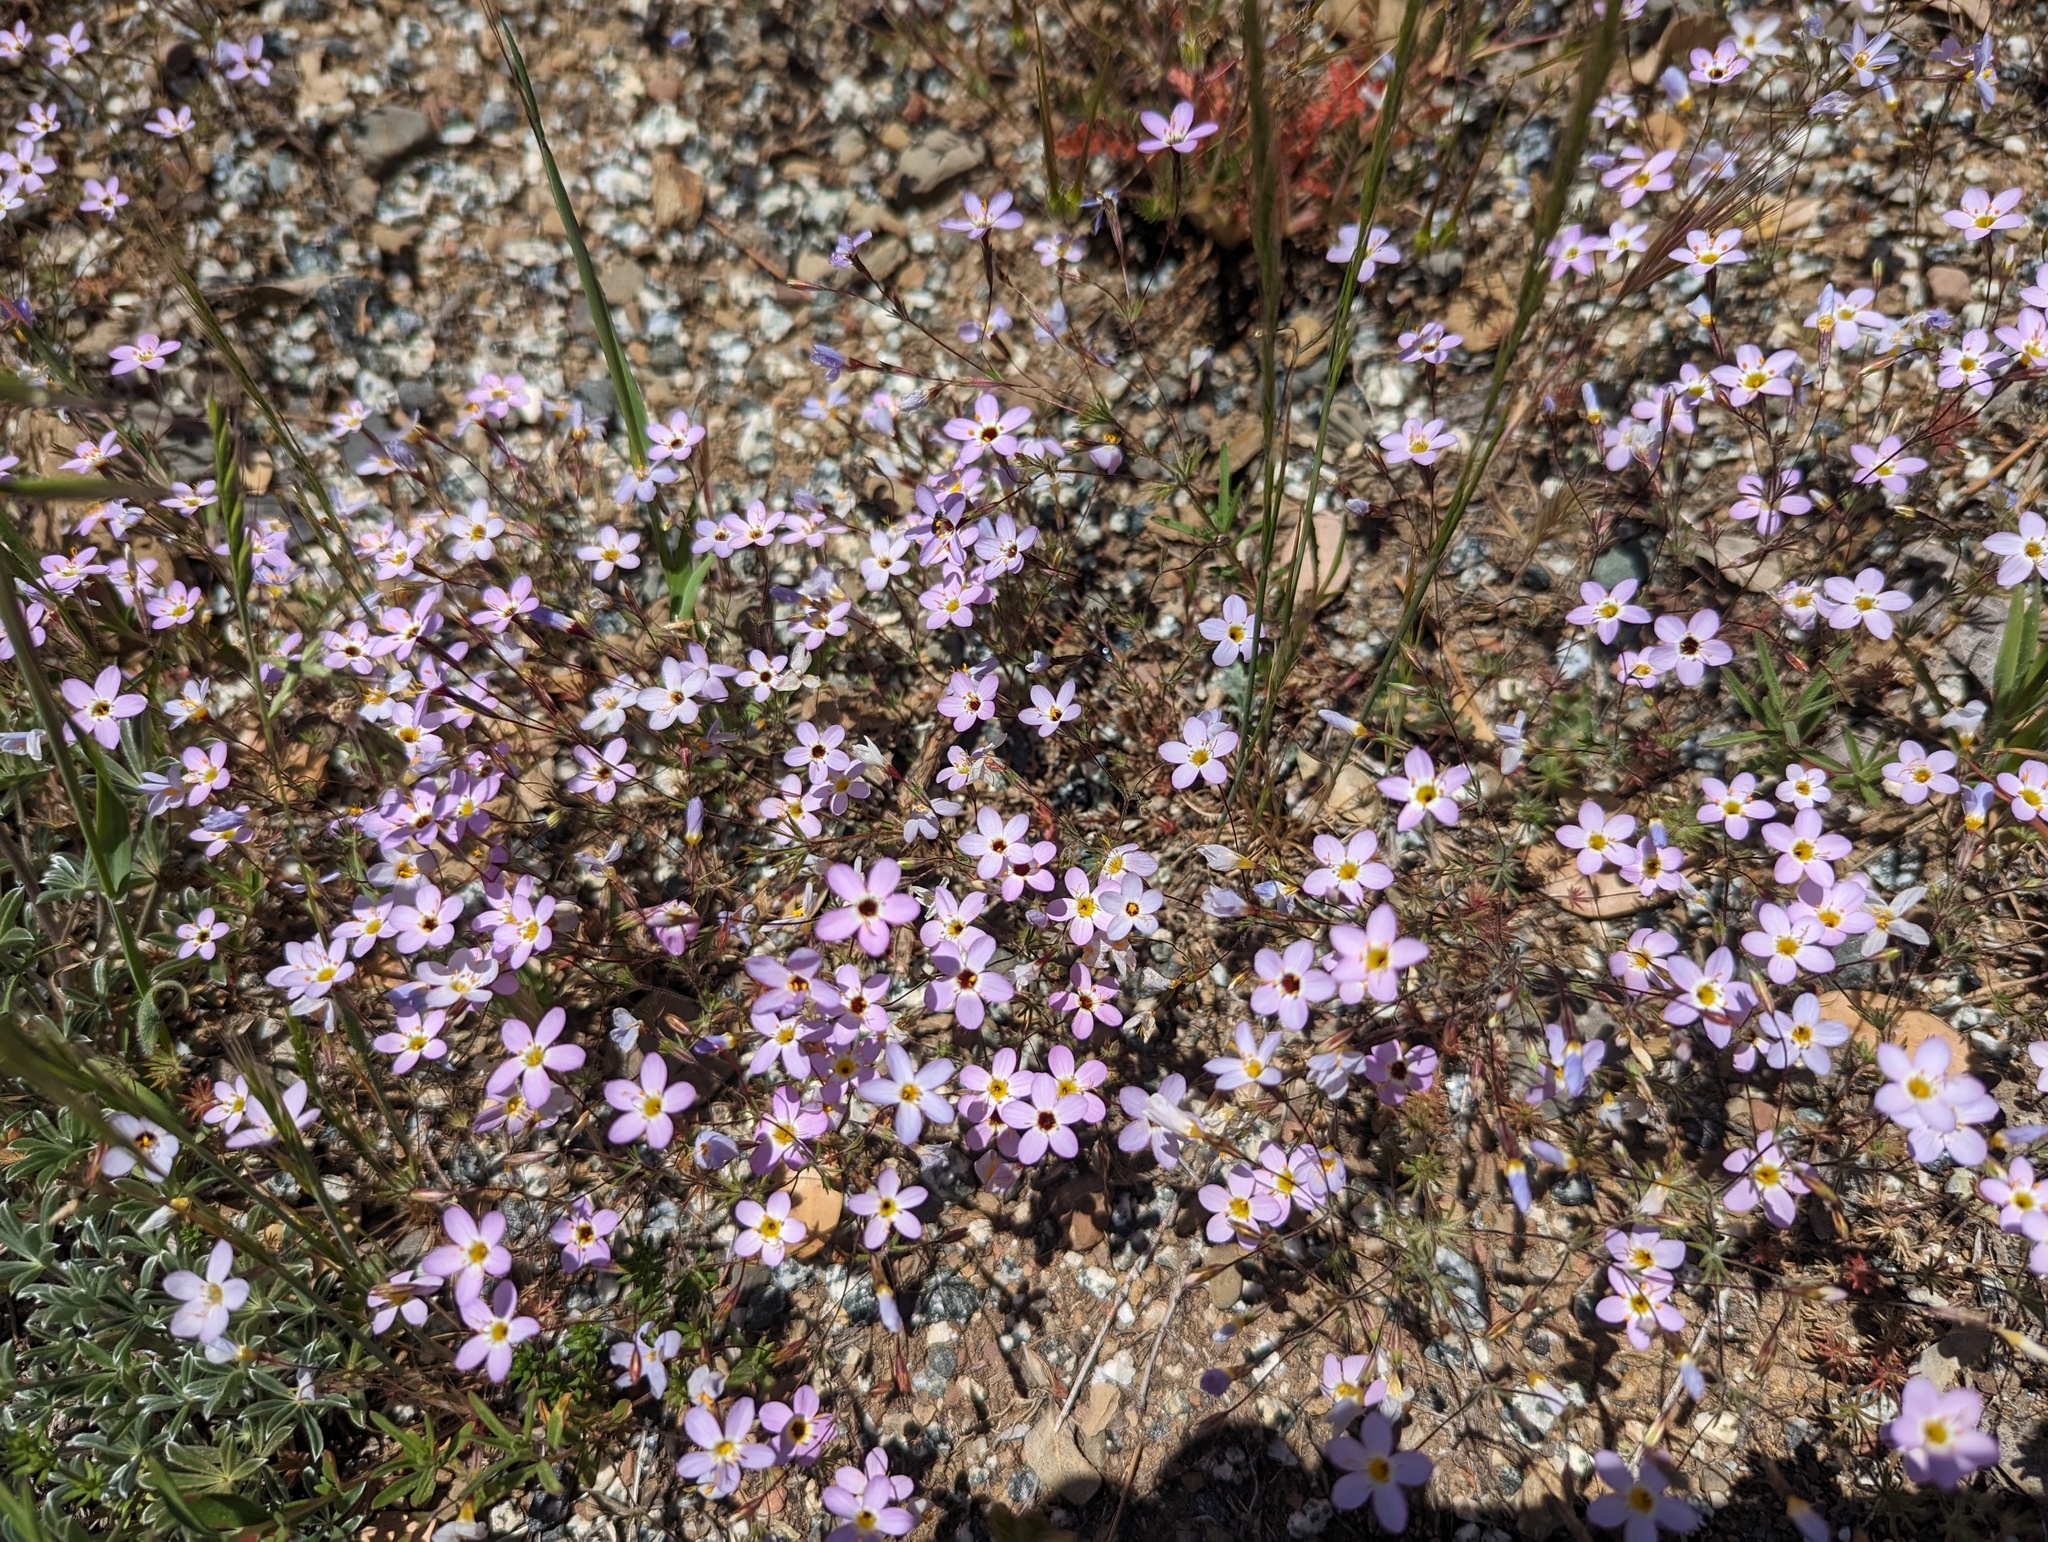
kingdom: Plantae
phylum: Tracheophyta
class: Magnoliopsida
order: Ericales
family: Polemoniaceae
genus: Leptosiphon
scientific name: Leptosiphon ambiguus
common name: Serpentine linanthus
